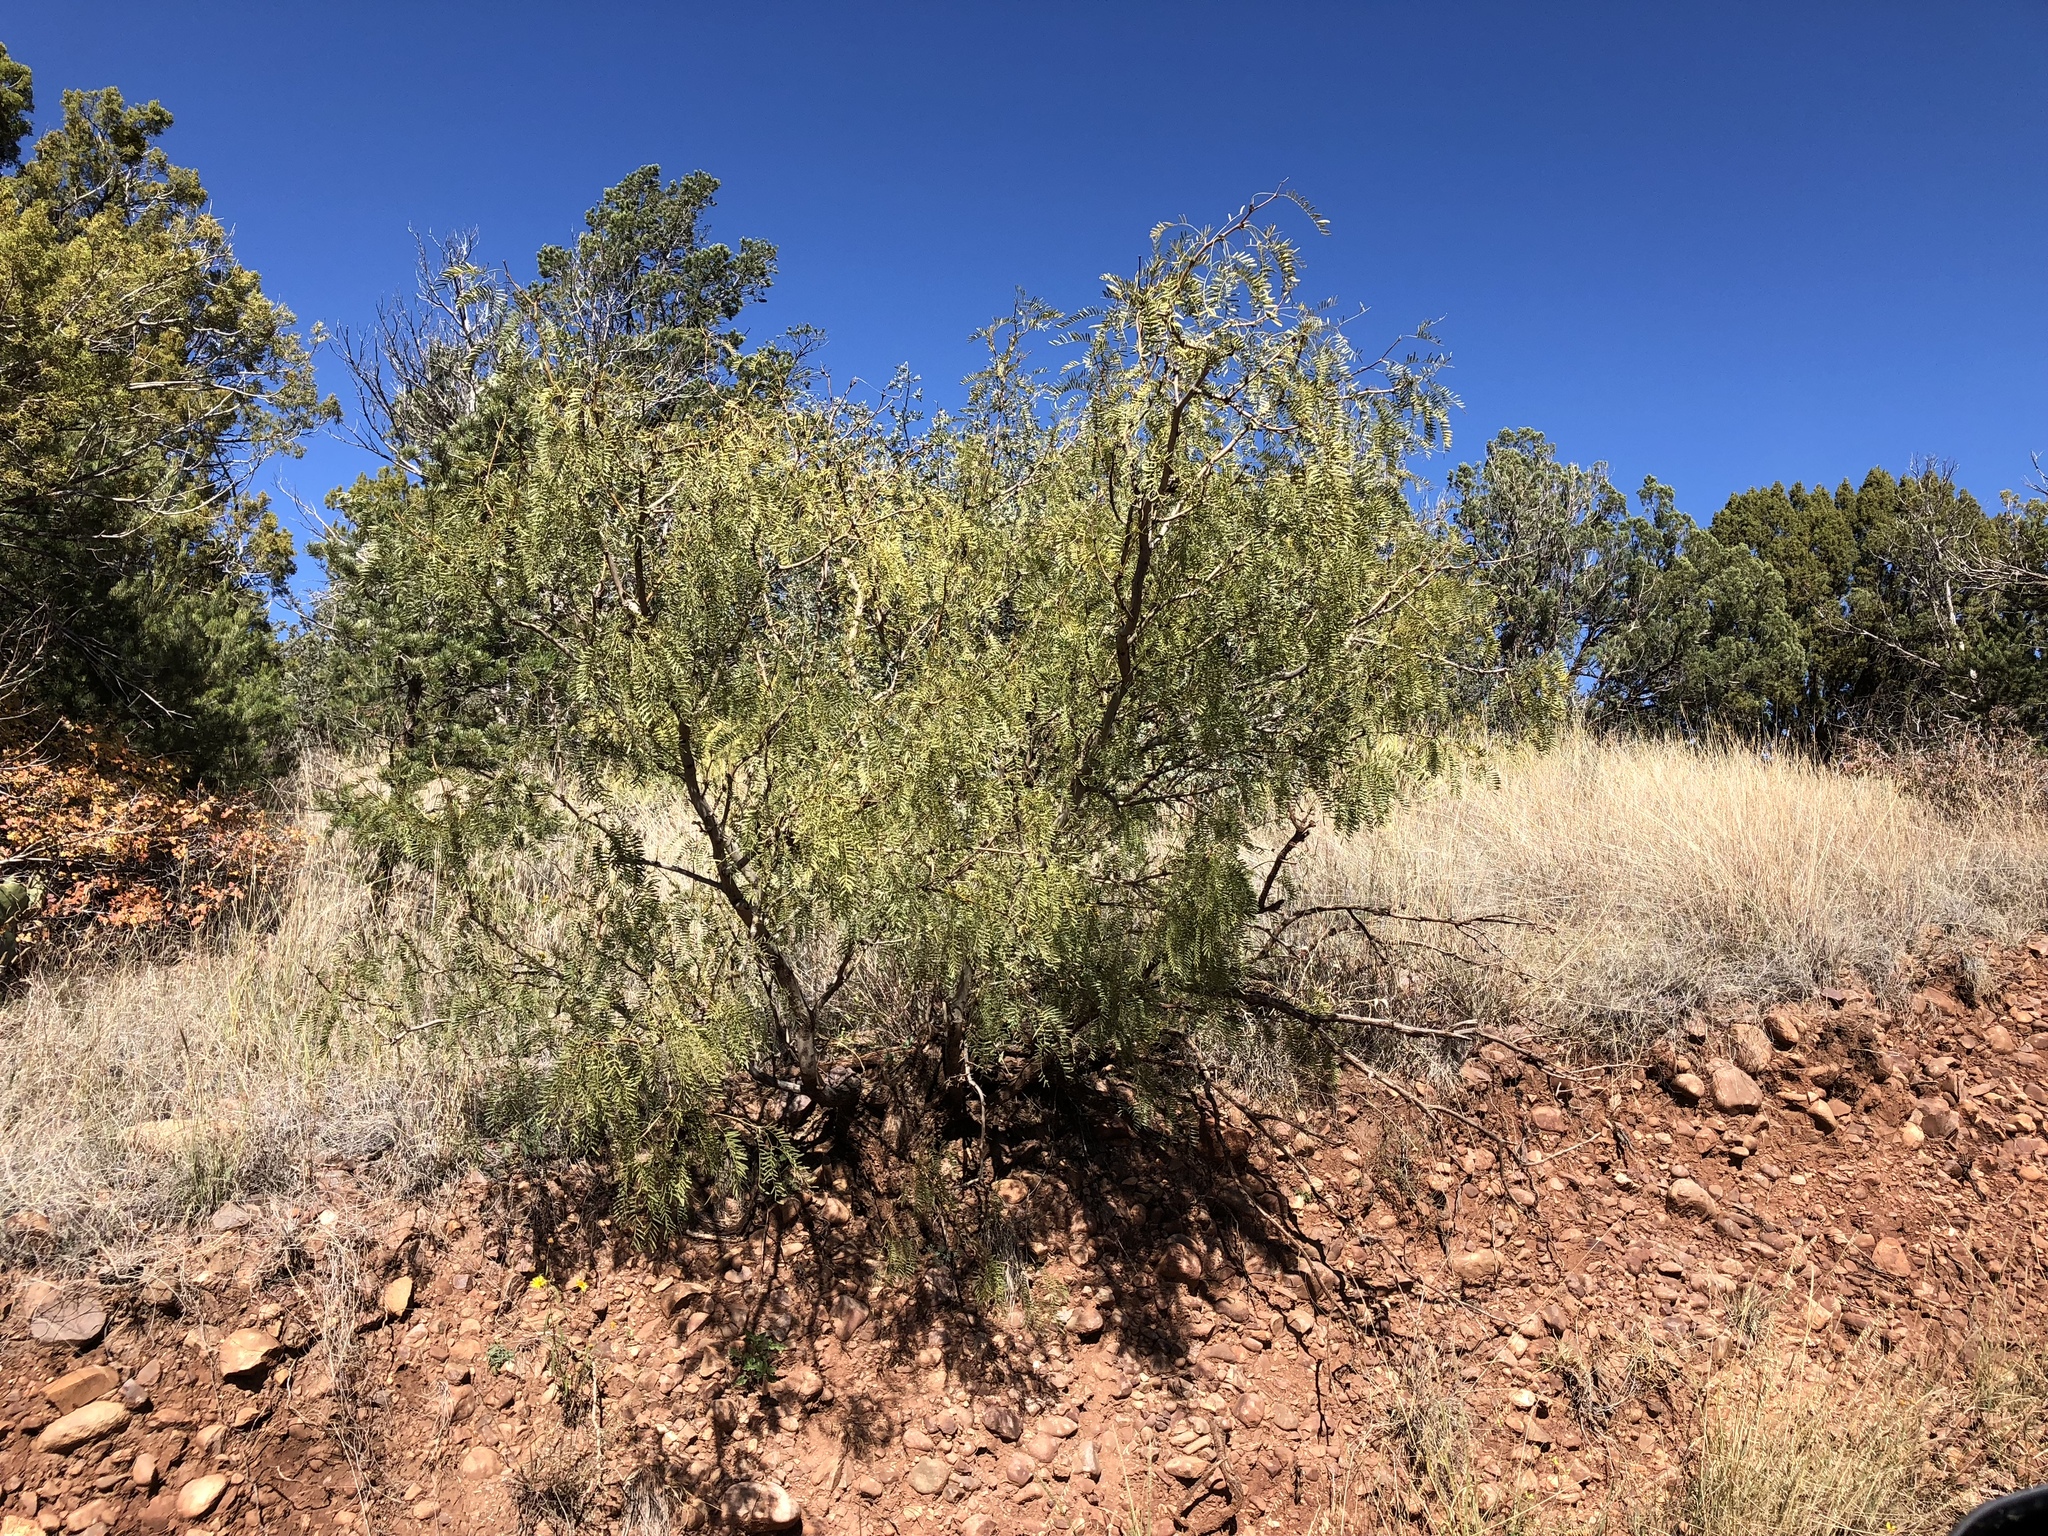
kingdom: Plantae
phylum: Tracheophyta
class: Magnoliopsida
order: Fabales
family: Fabaceae
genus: Prosopis
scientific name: Prosopis glandulosa
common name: Honey mesquite
